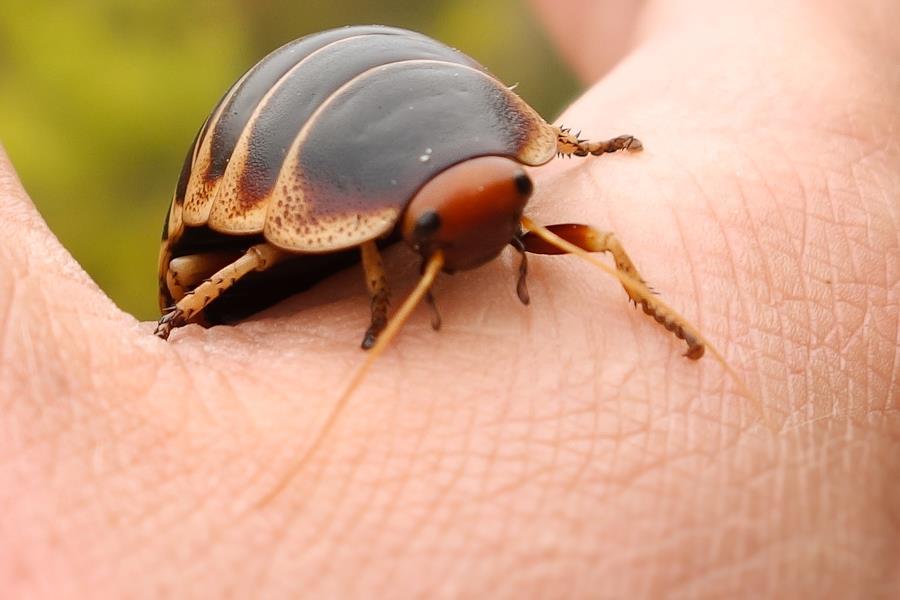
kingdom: Animalia
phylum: Arthropoda
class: Insecta
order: Blattodea
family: Blaberidae
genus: Aptera
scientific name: Aptera fusca
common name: Cape mountain cockroach
